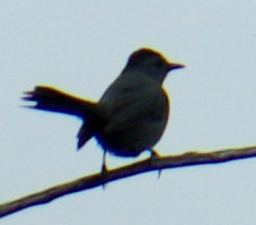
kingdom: Animalia
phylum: Chordata
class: Aves
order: Passeriformes
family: Mimidae
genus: Dumetella
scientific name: Dumetella carolinensis
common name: Gray catbird
